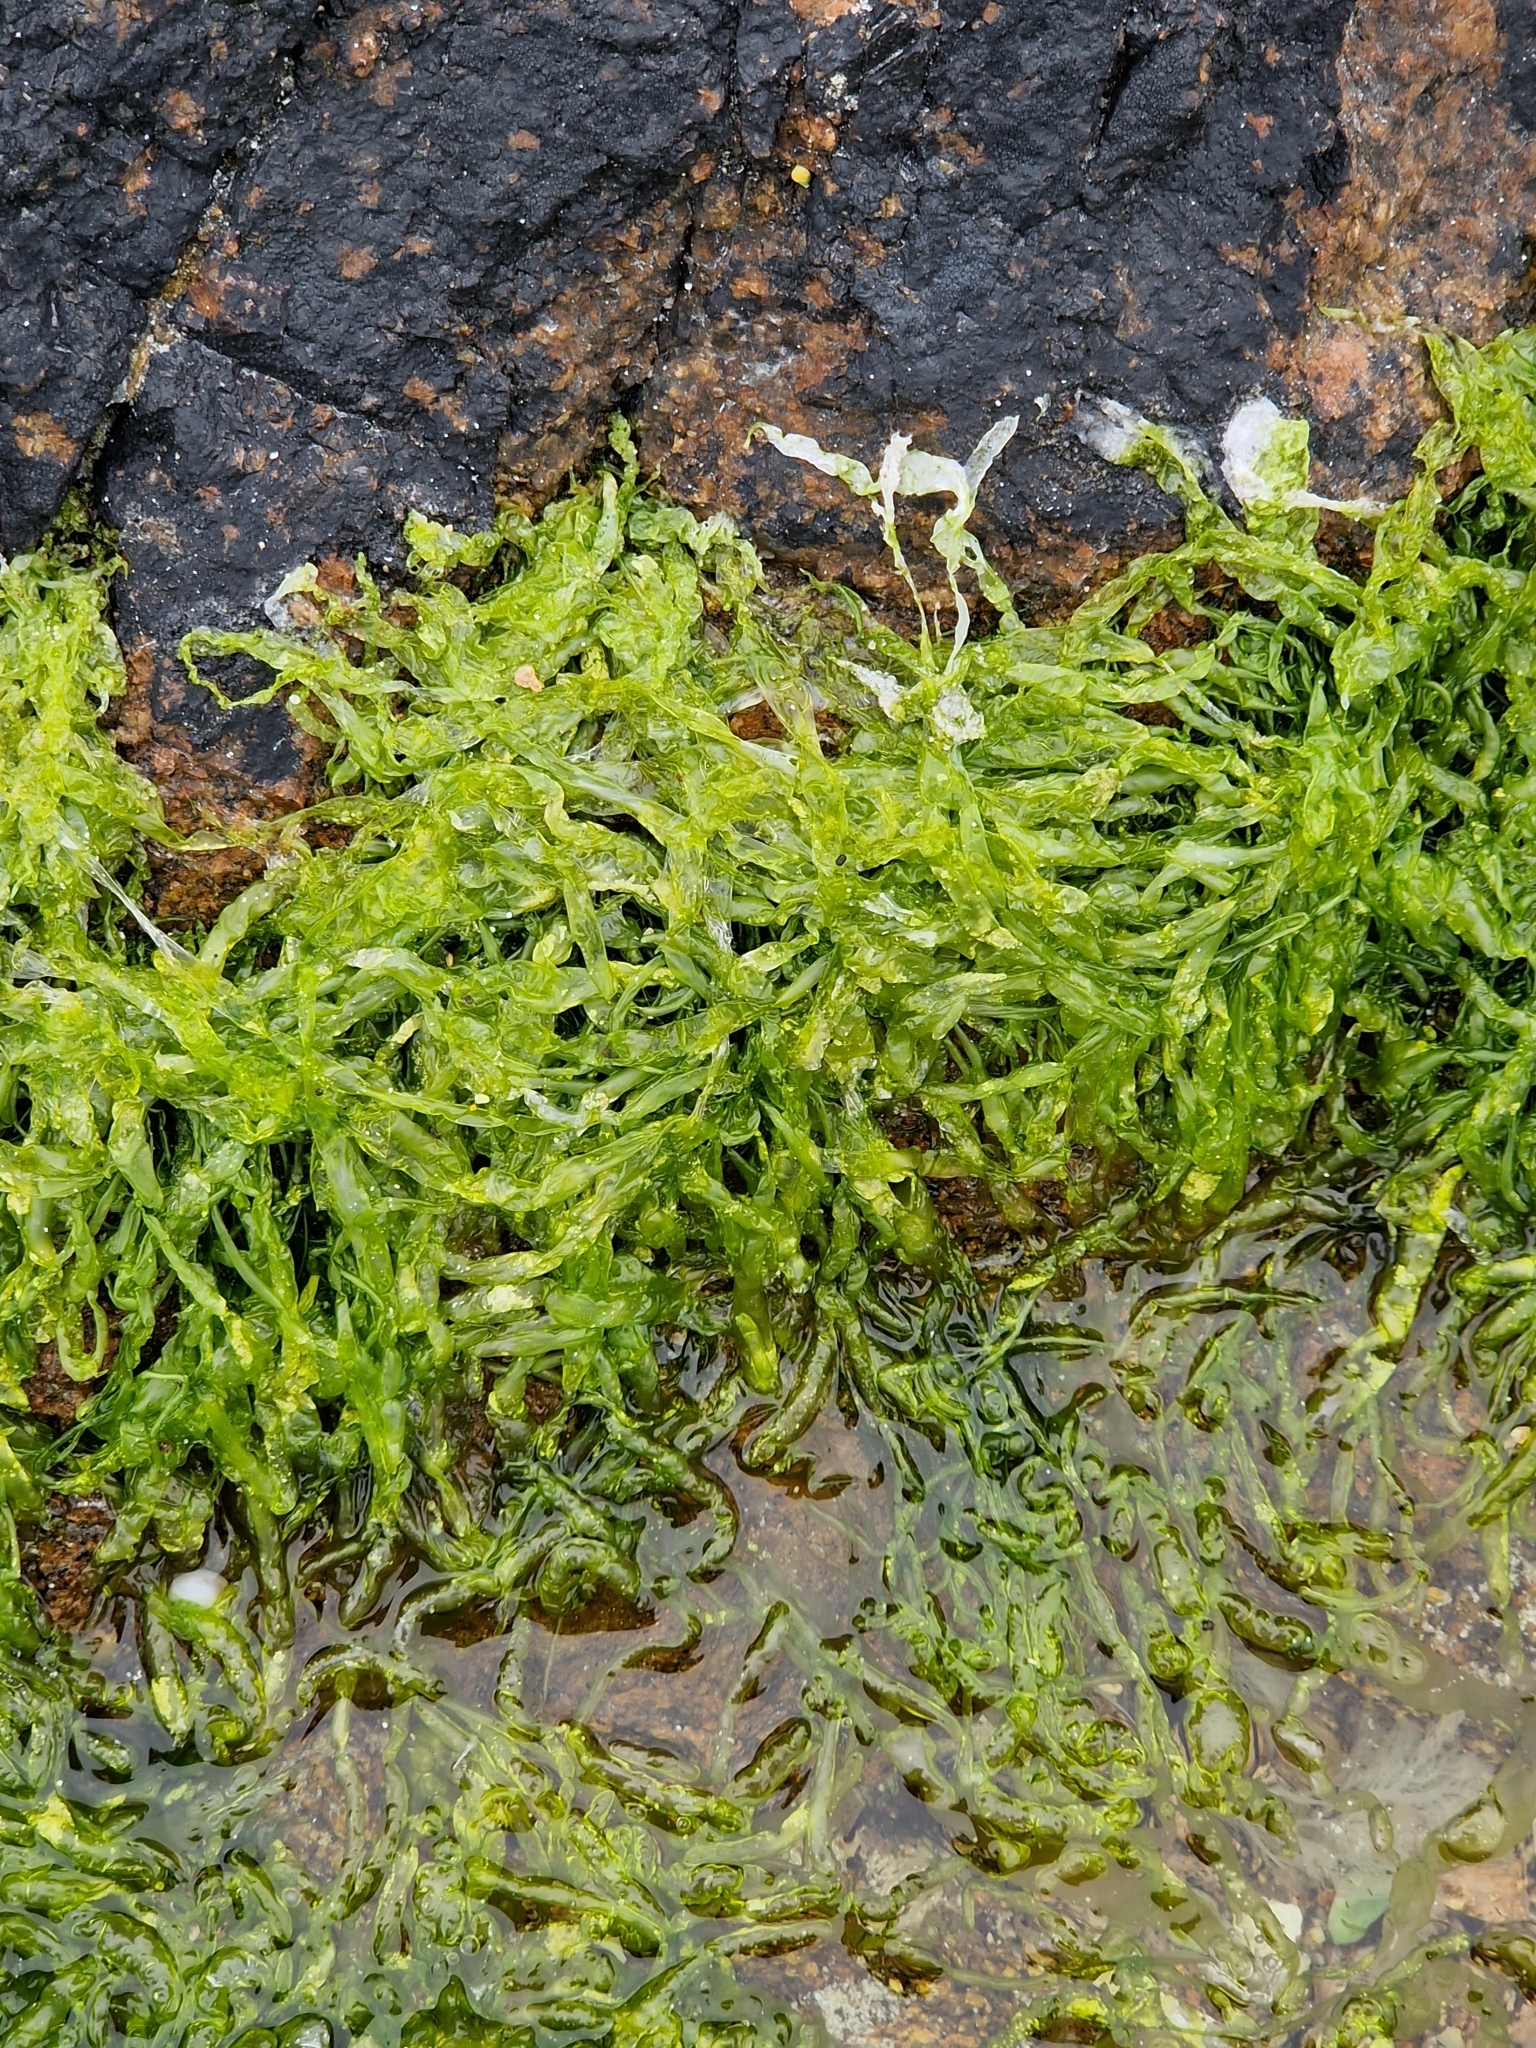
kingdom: Plantae
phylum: Chlorophyta
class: Ulvophyceae
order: Ulvales
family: Ulvaceae
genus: Ulva
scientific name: Ulva intestinalis
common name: Gut weed
